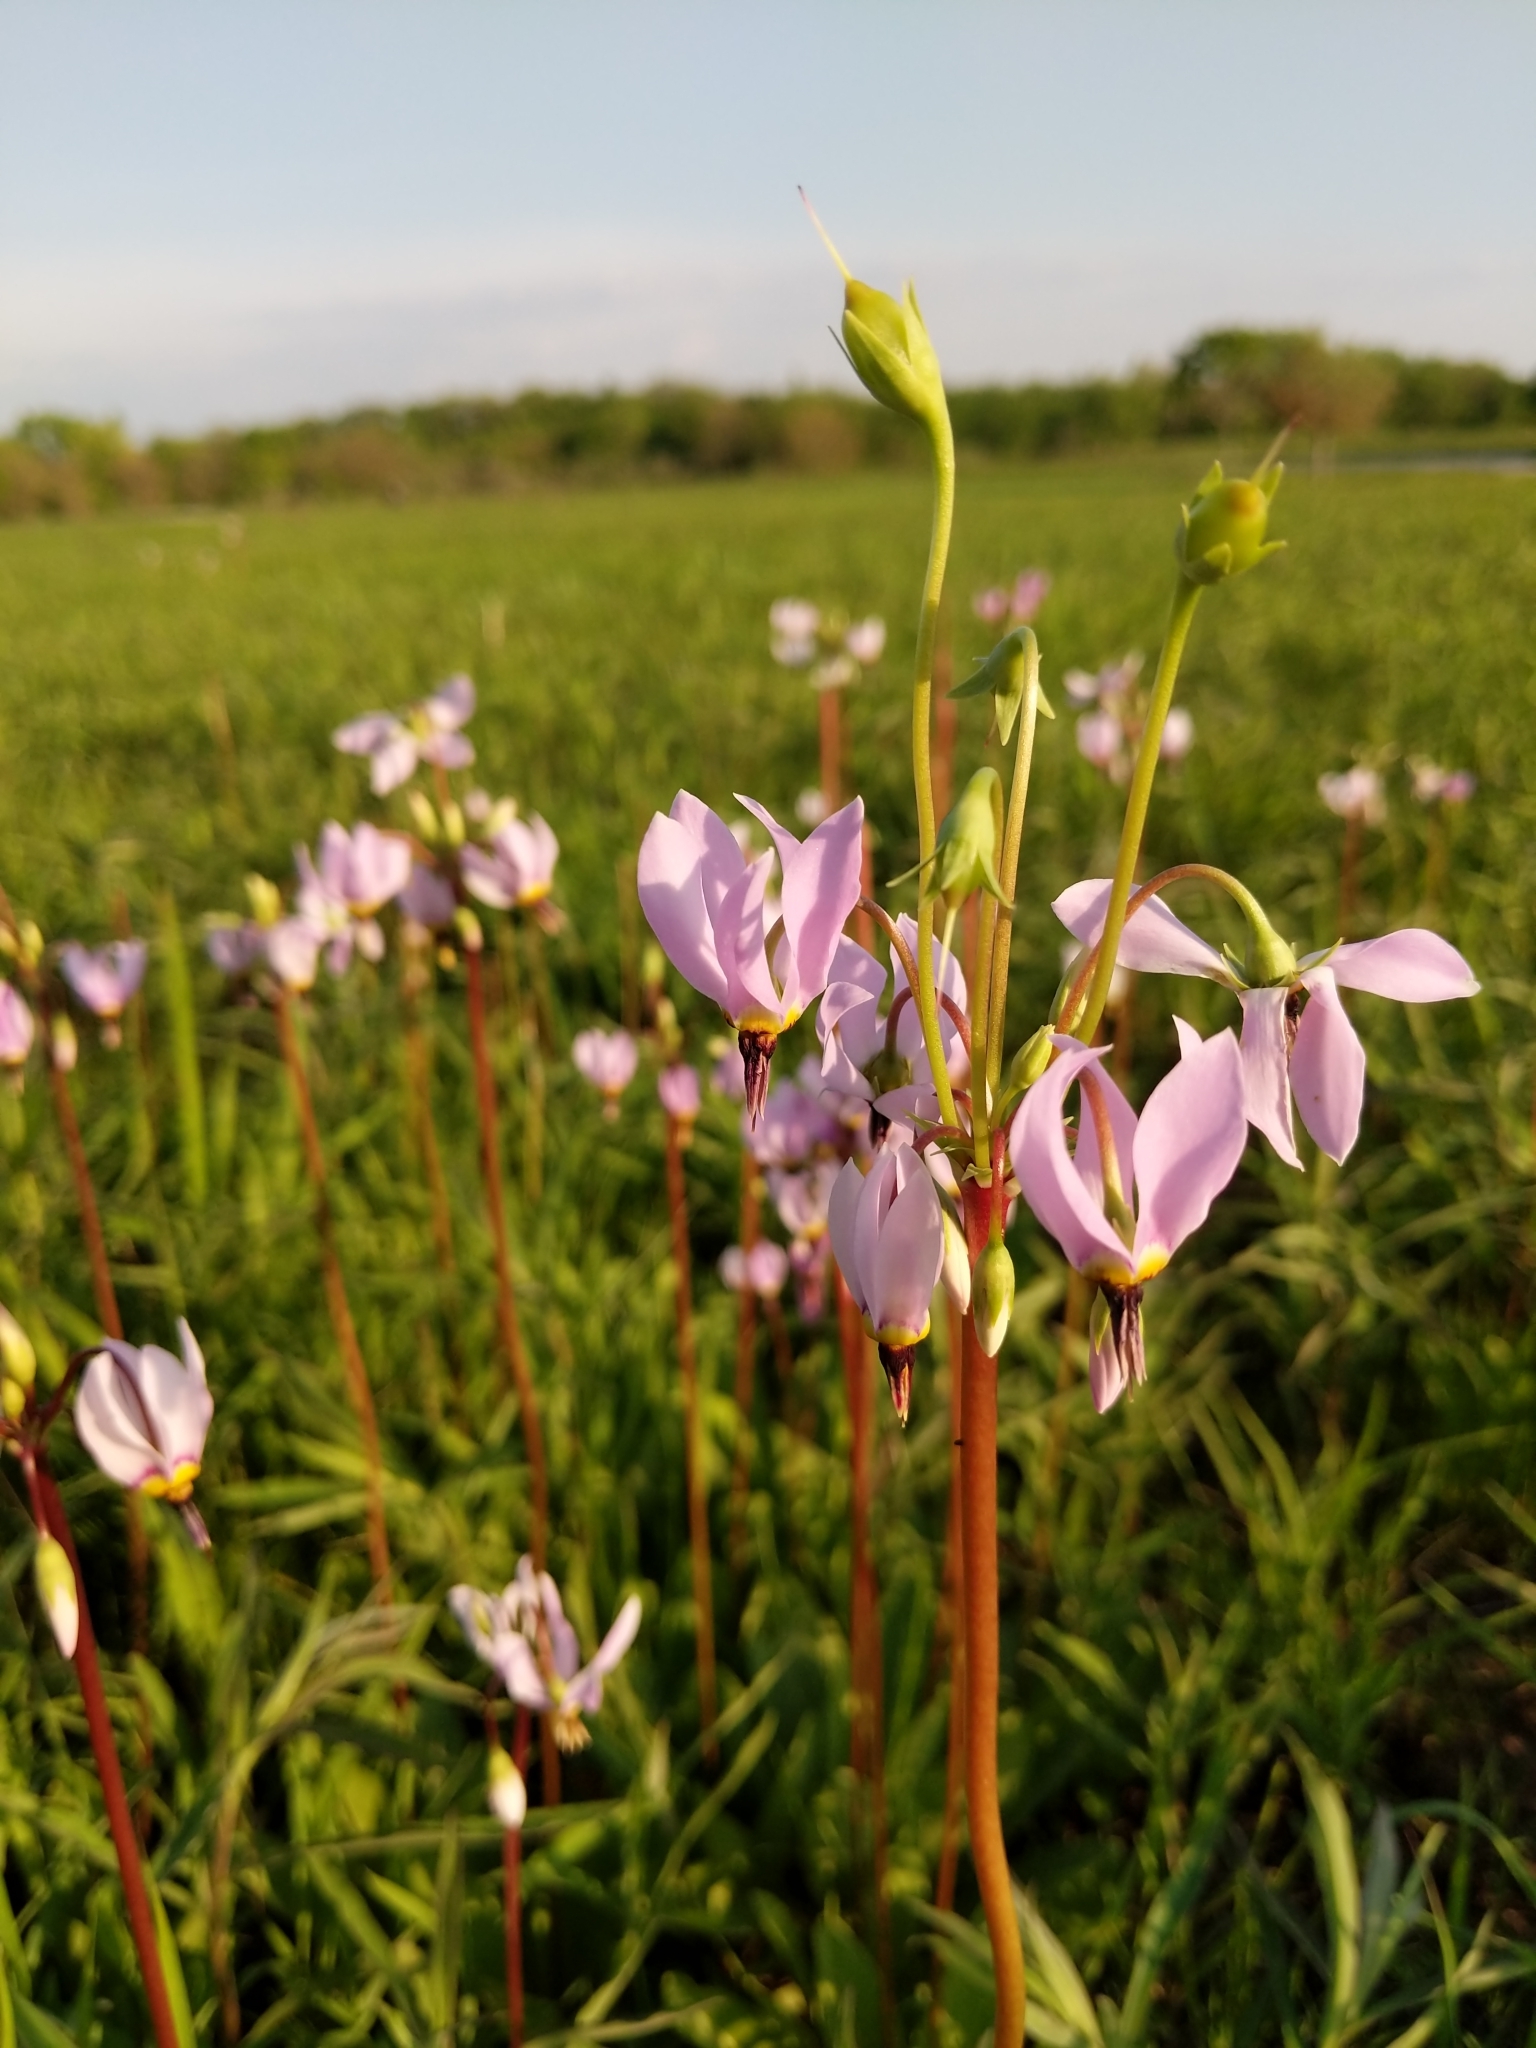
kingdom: Plantae
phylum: Tracheophyta
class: Magnoliopsida
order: Ericales
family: Primulaceae
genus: Dodecatheon
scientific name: Dodecatheon meadia
